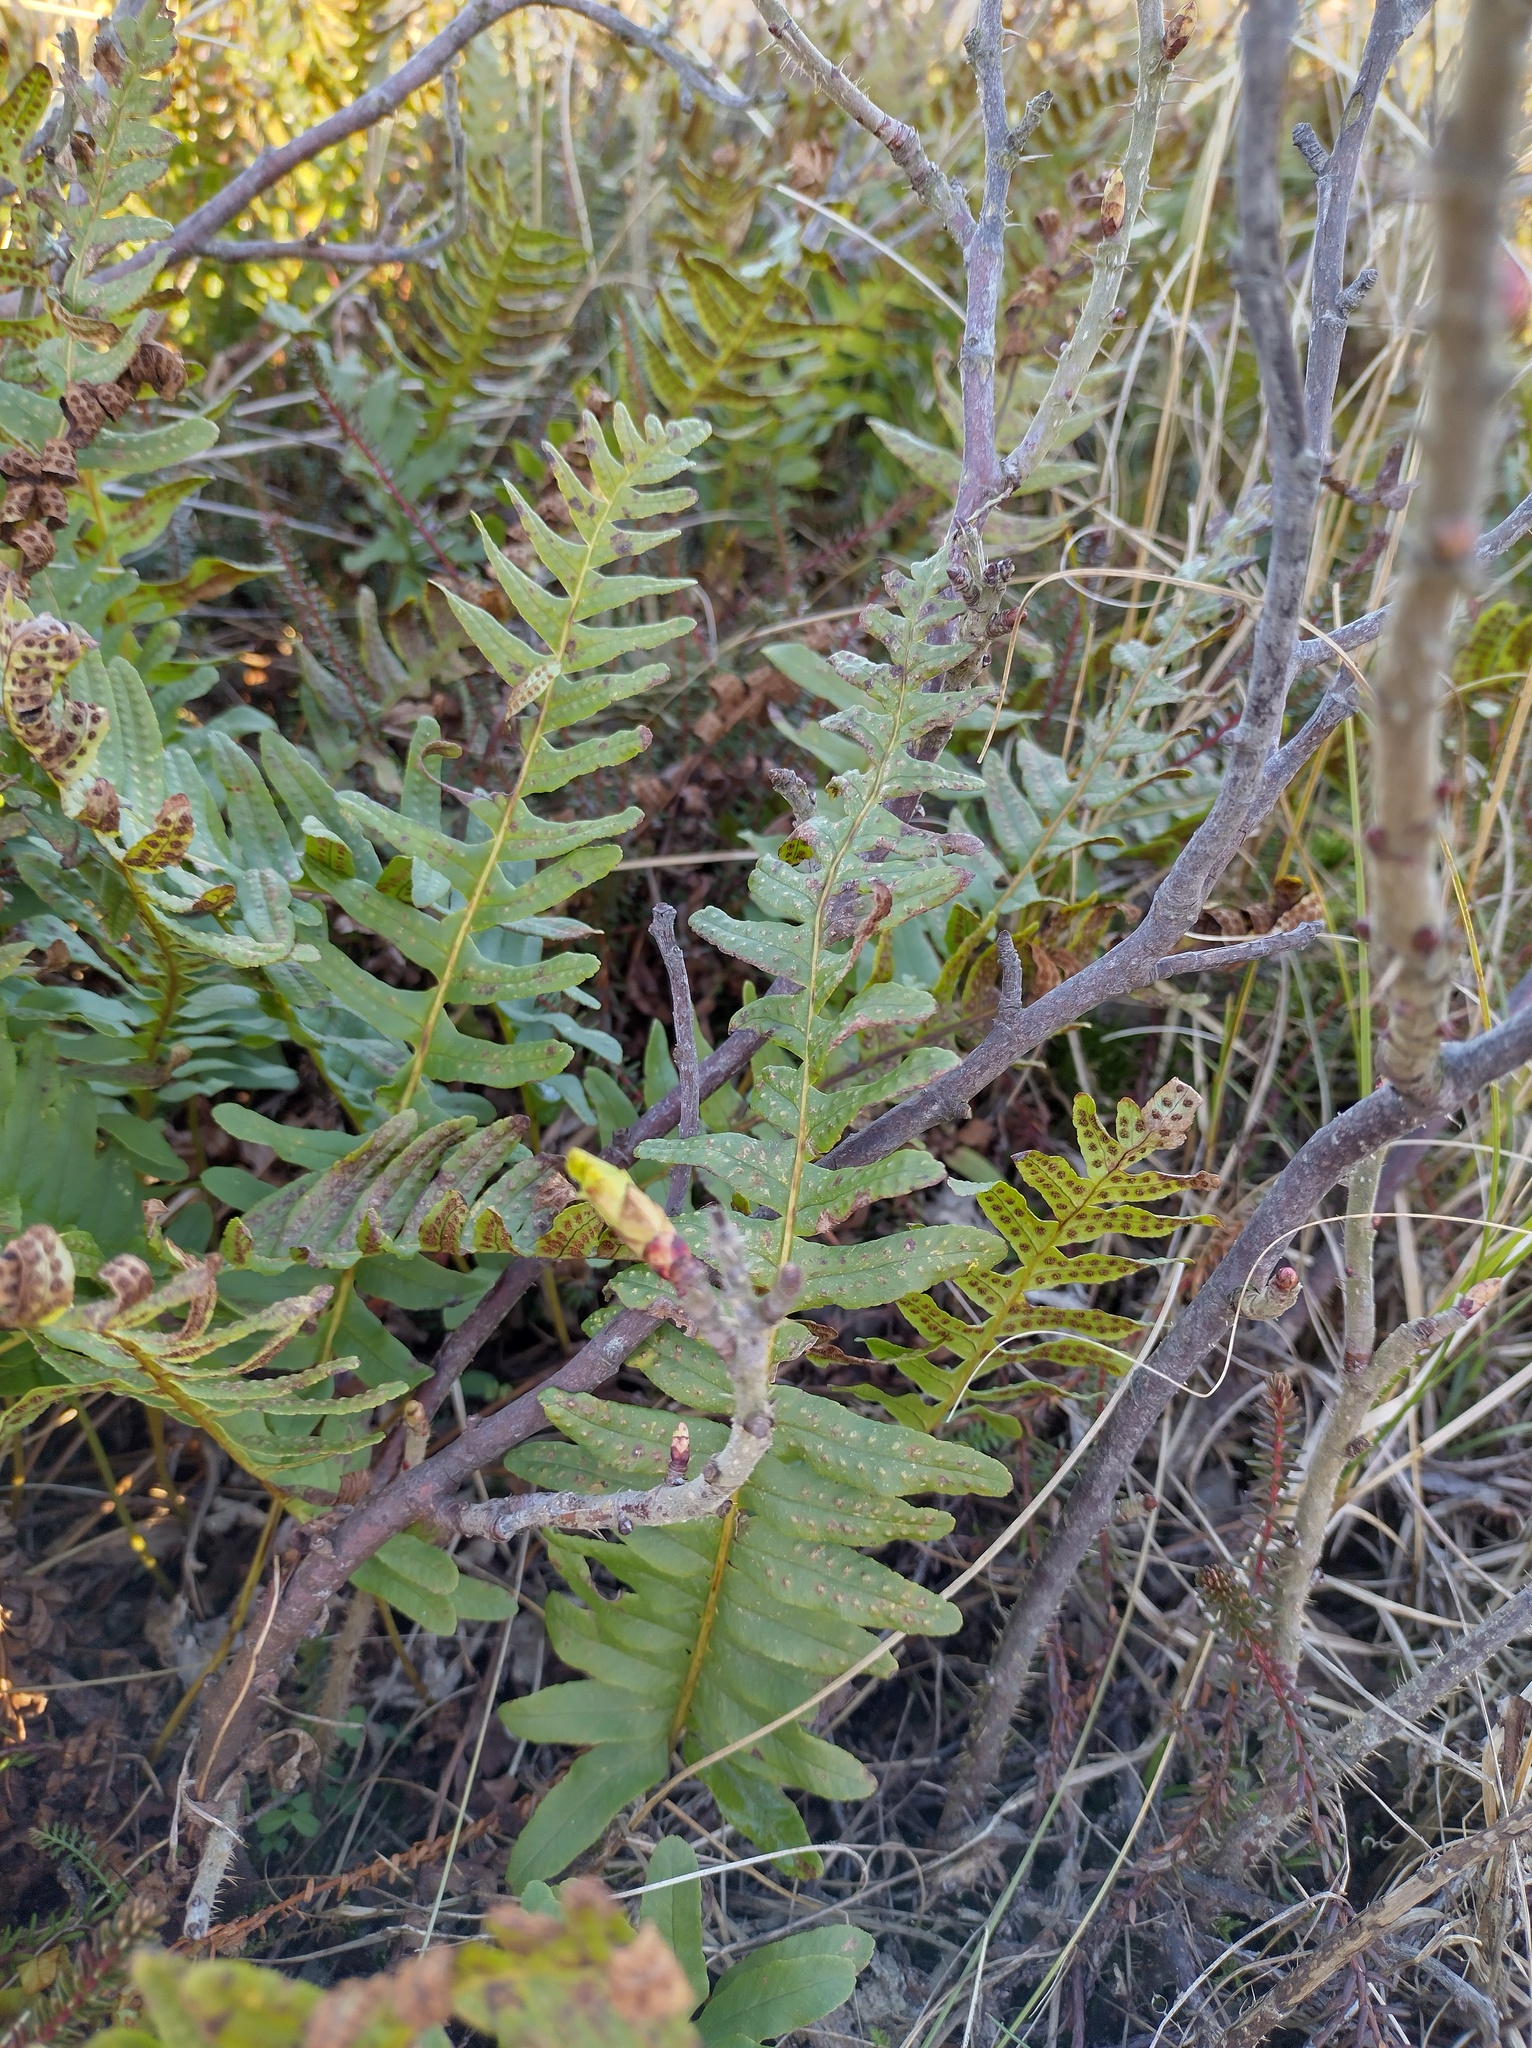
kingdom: Plantae
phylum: Tracheophyta
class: Polypodiopsida
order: Polypodiales
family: Polypodiaceae
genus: Polypodium
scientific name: Polypodium vulgare
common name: Common polypody
